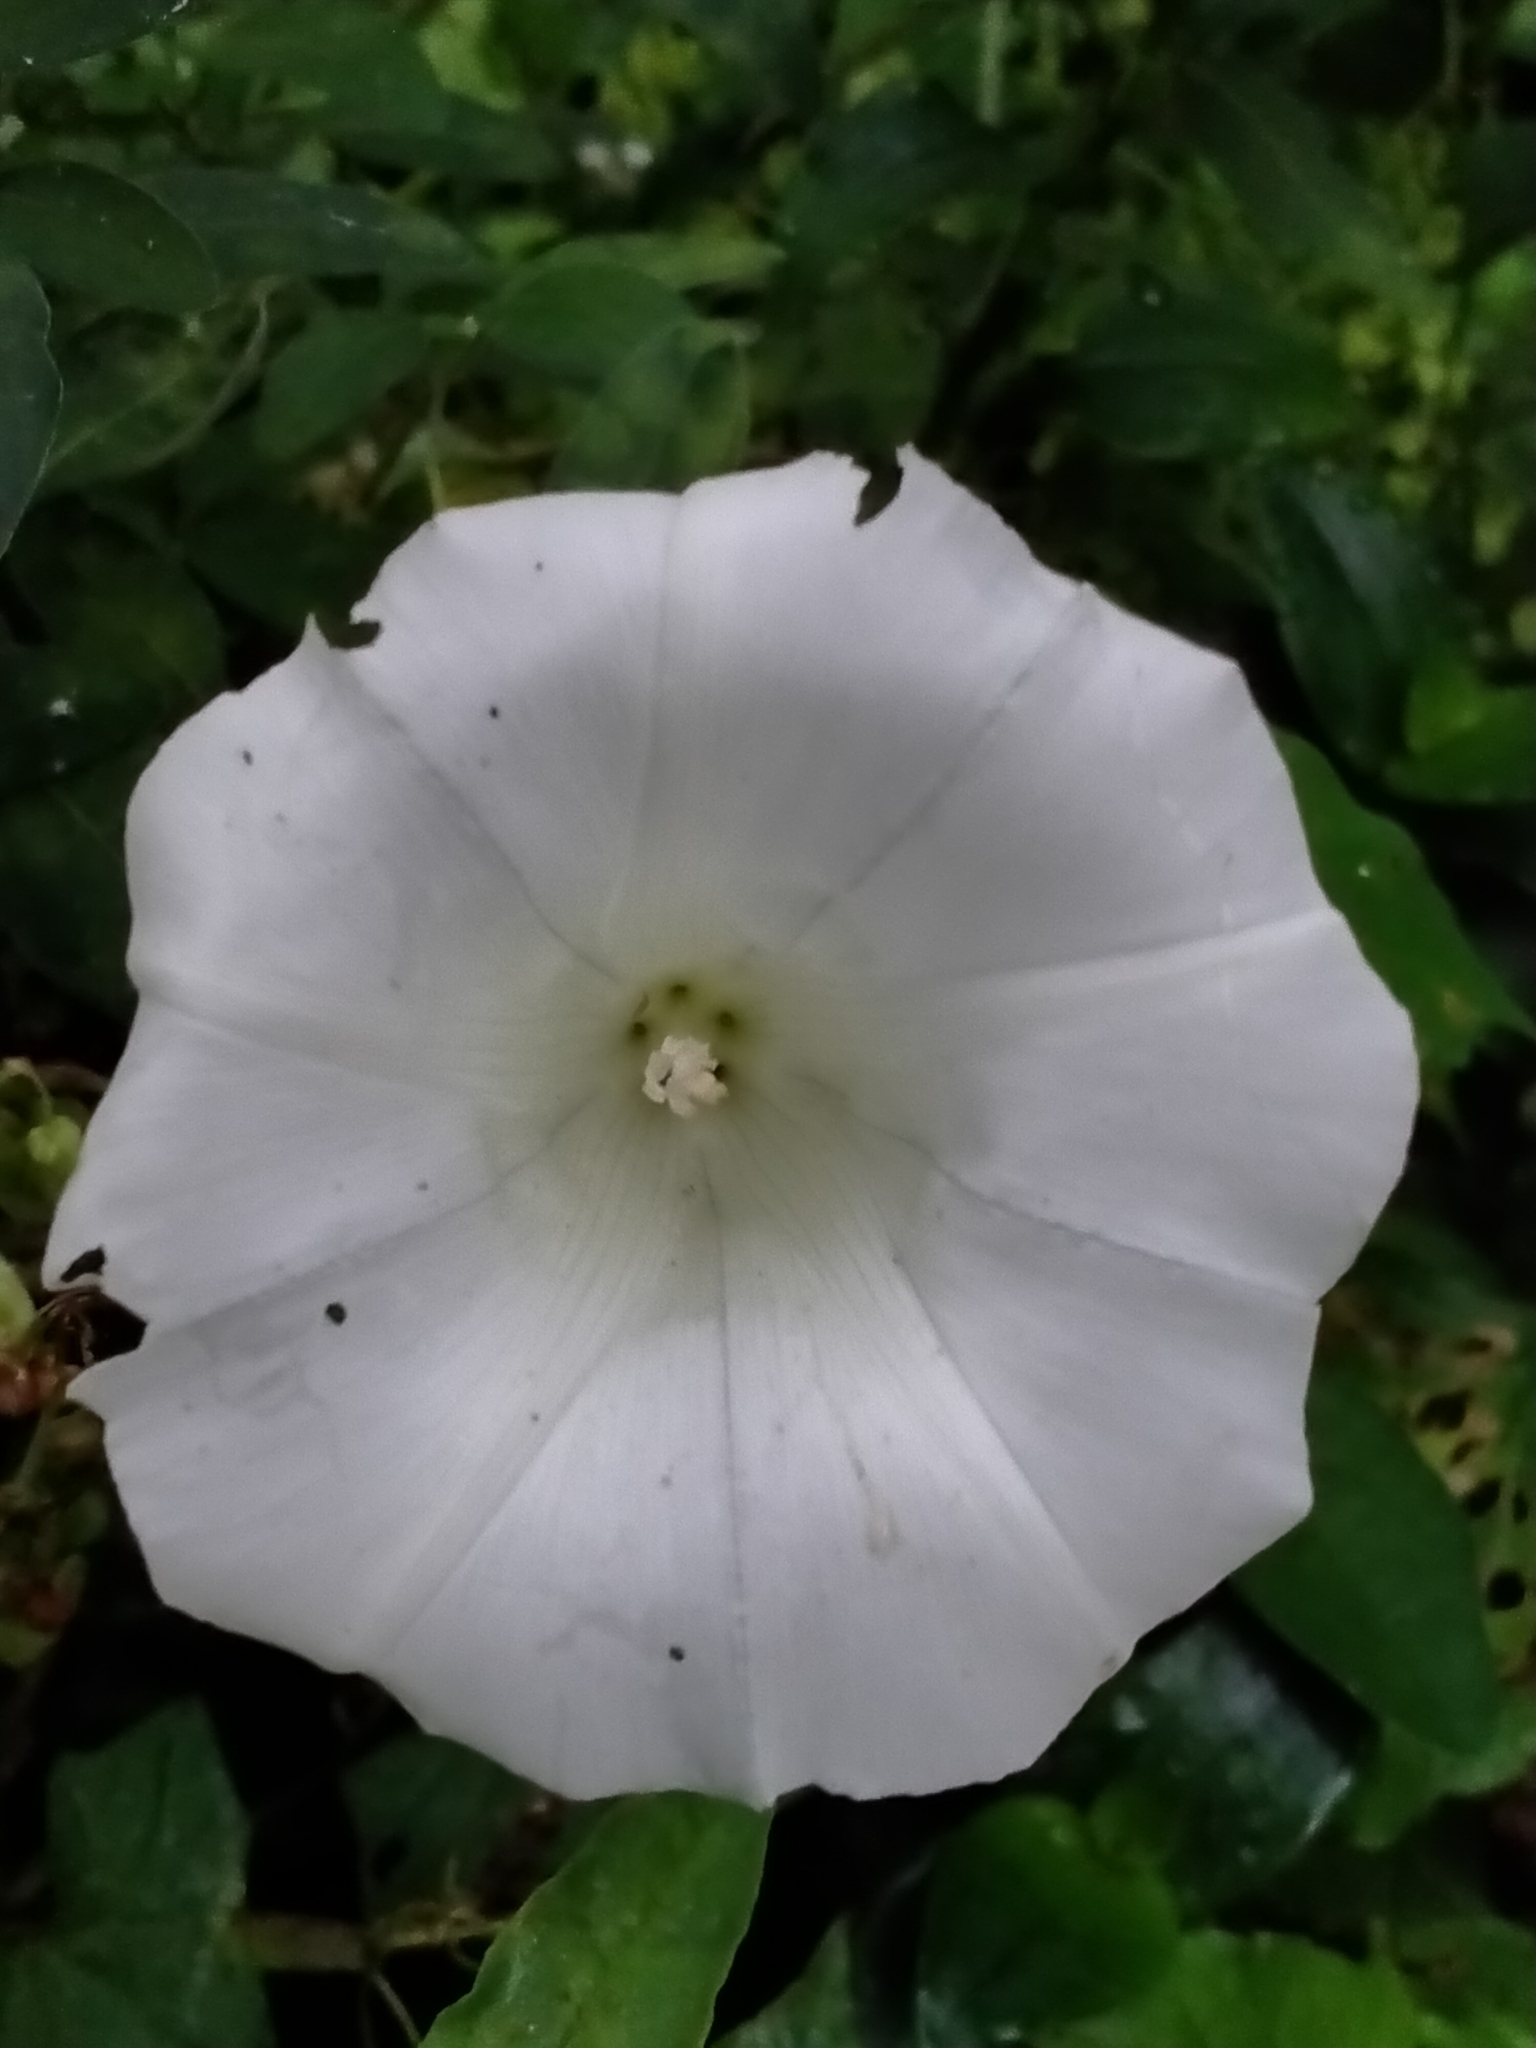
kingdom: Plantae
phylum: Tracheophyta
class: Magnoliopsida
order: Solanales
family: Convolvulaceae
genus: Calystegia
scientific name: Calystegia silvatica
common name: Large bindweed
